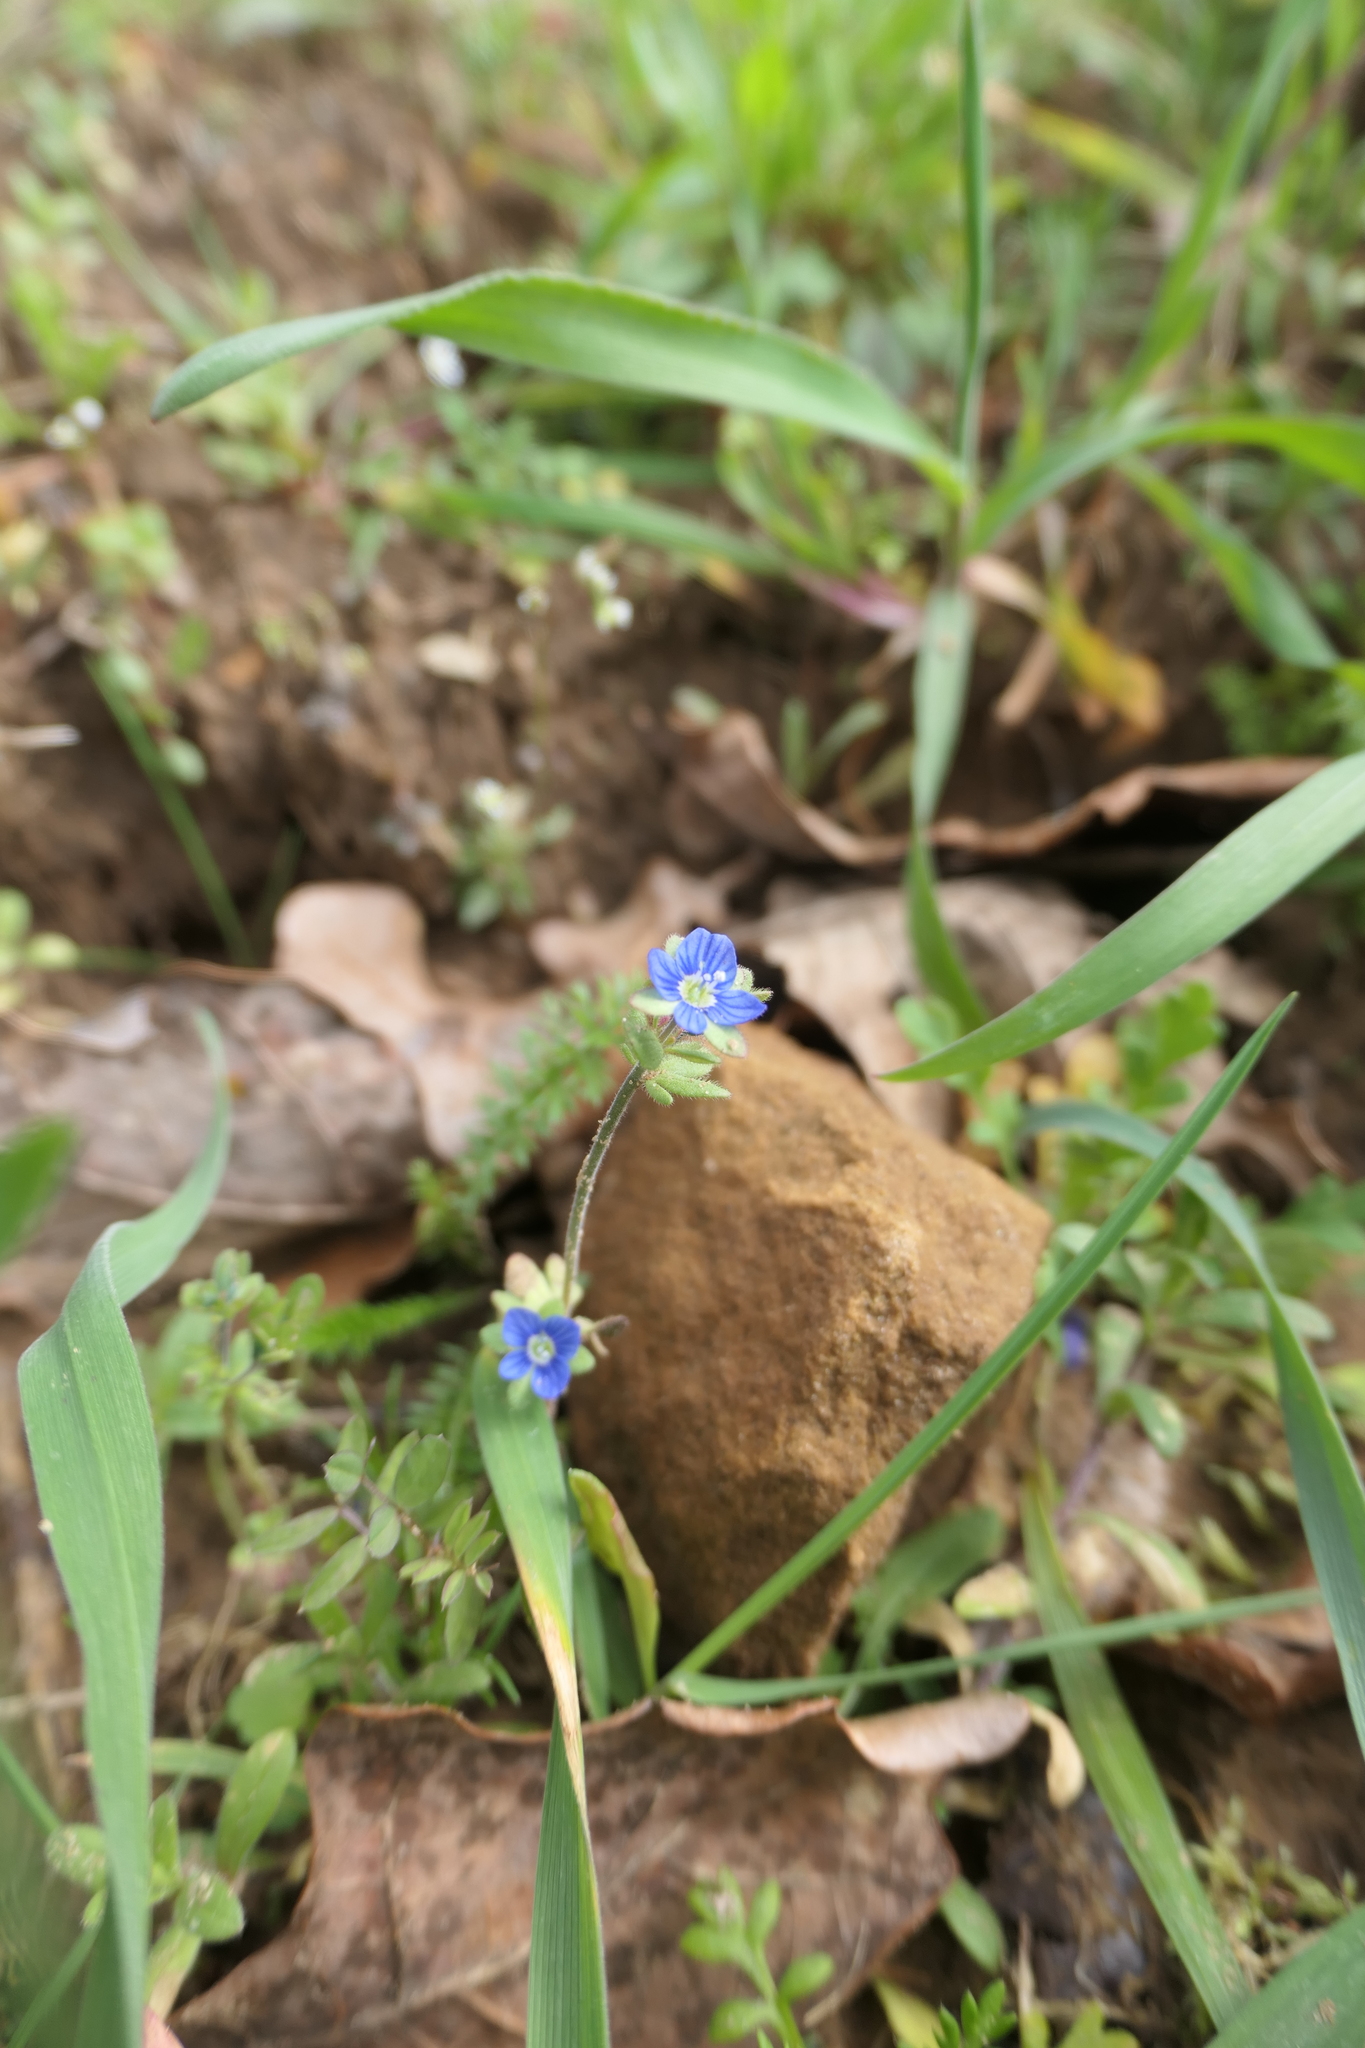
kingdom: Plantae
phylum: Tracheophyta
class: Magnoliopsida
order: Lamiales
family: Plantaginaceae
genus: Veronica
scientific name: Veronica triphyllos
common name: Fingered speedwell
